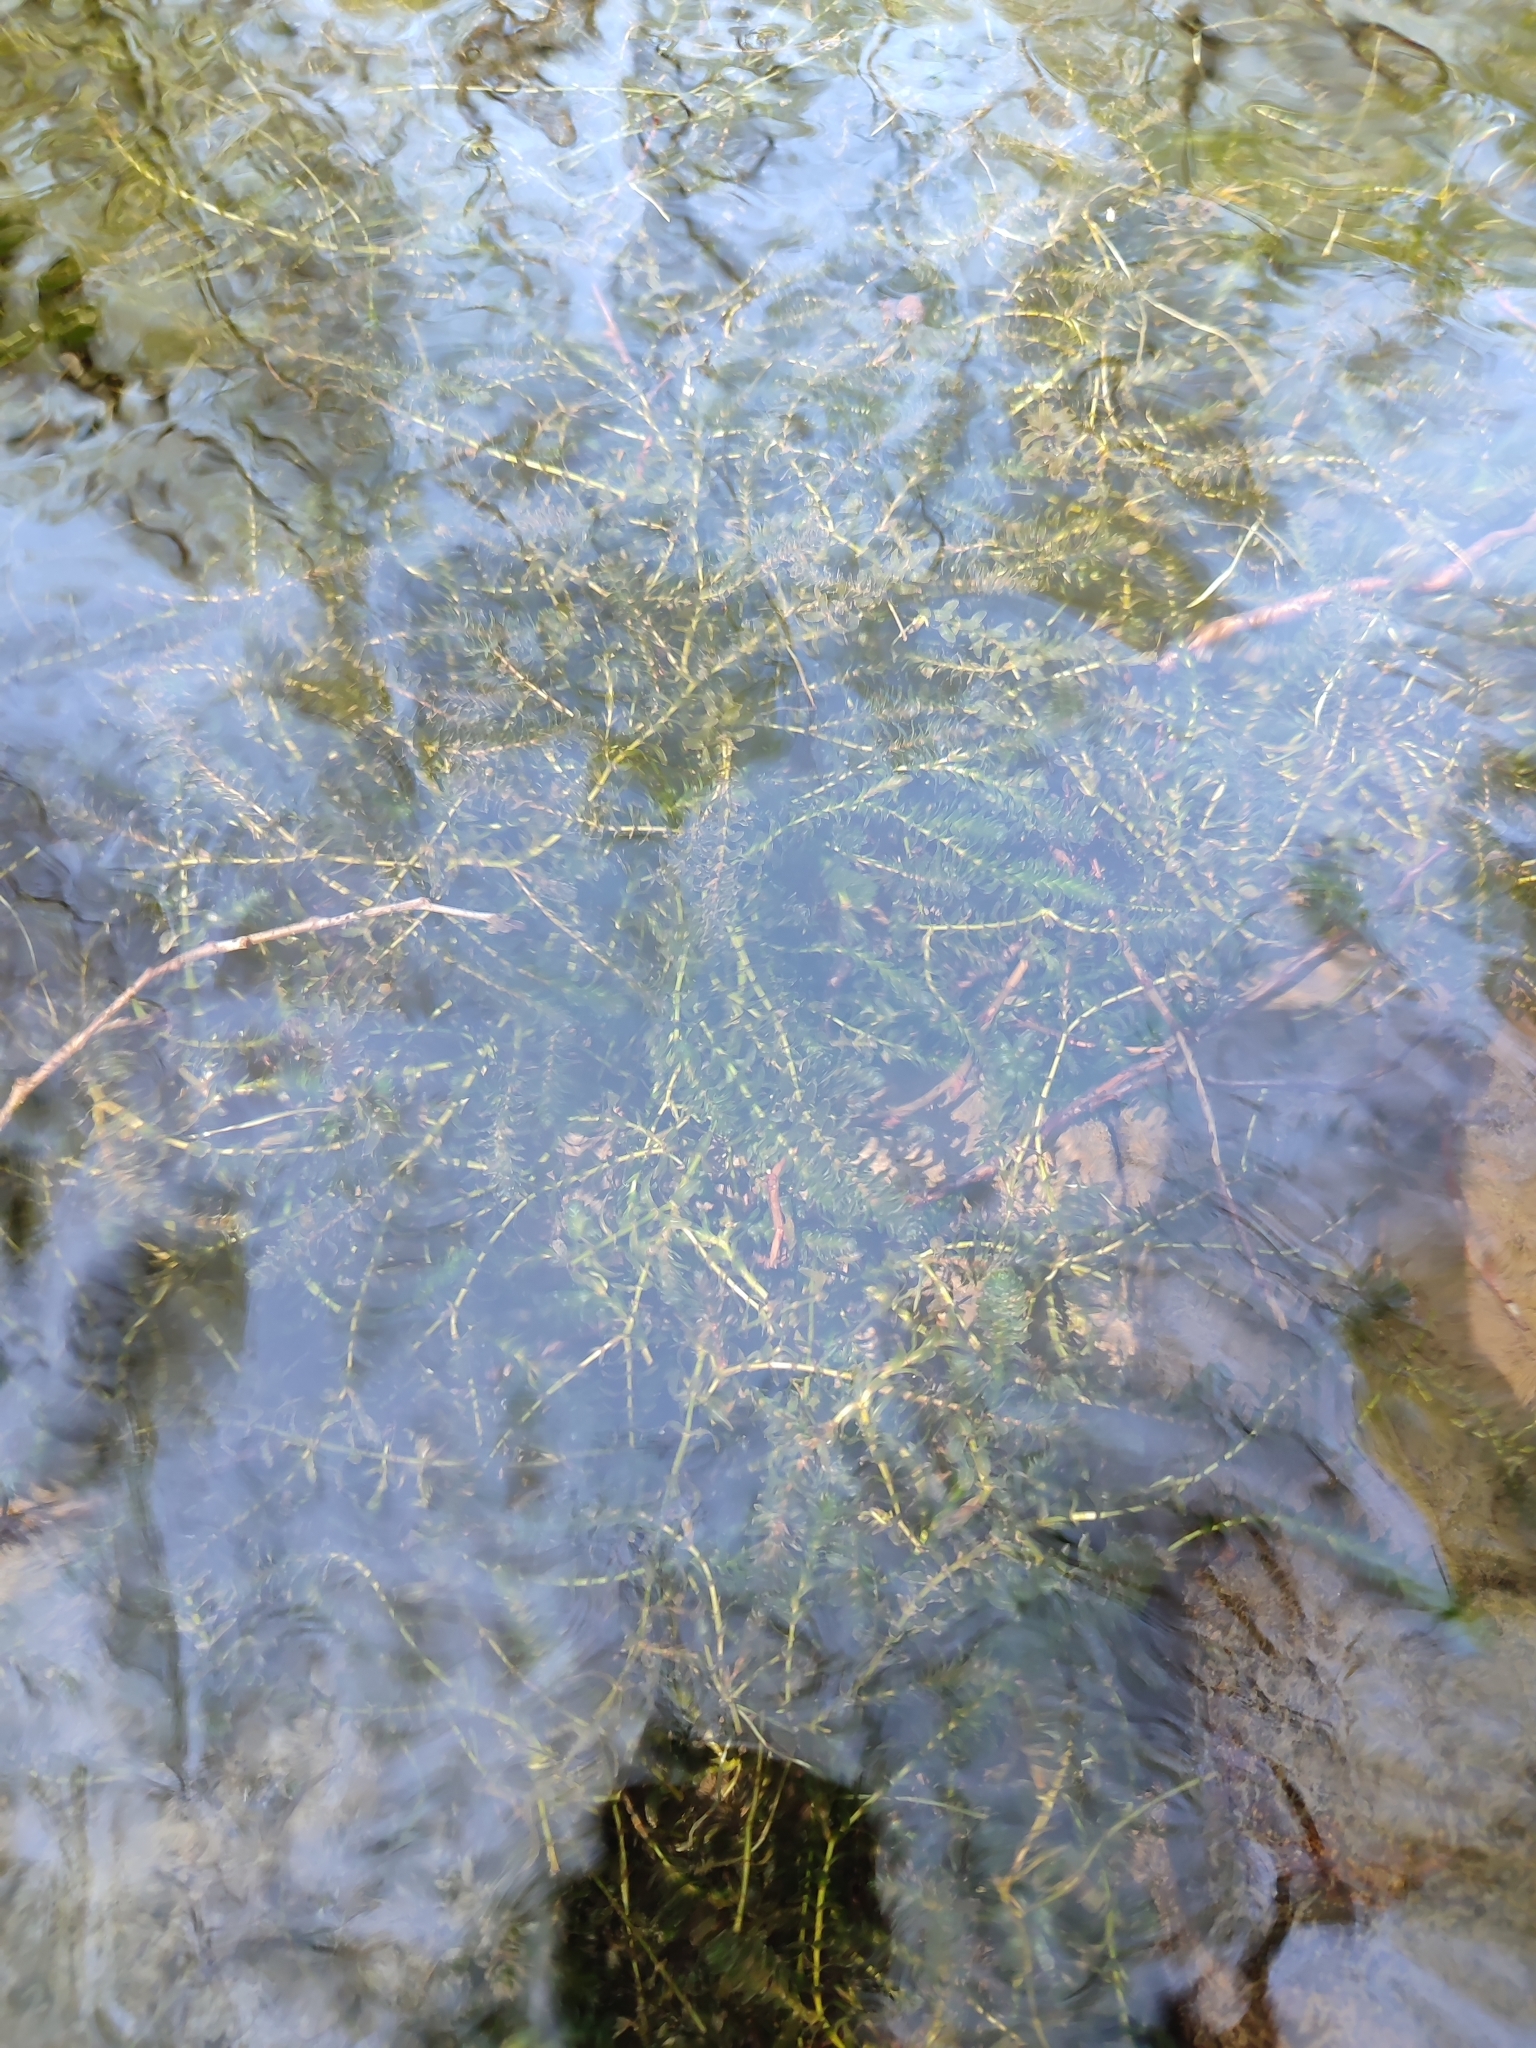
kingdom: Plantae
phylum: Tracheophyta
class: Liliopsida
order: Alismatales
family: Hydrocharitaceae
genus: Elodea
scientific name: Elodea canadensis
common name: Canadian waterweed
